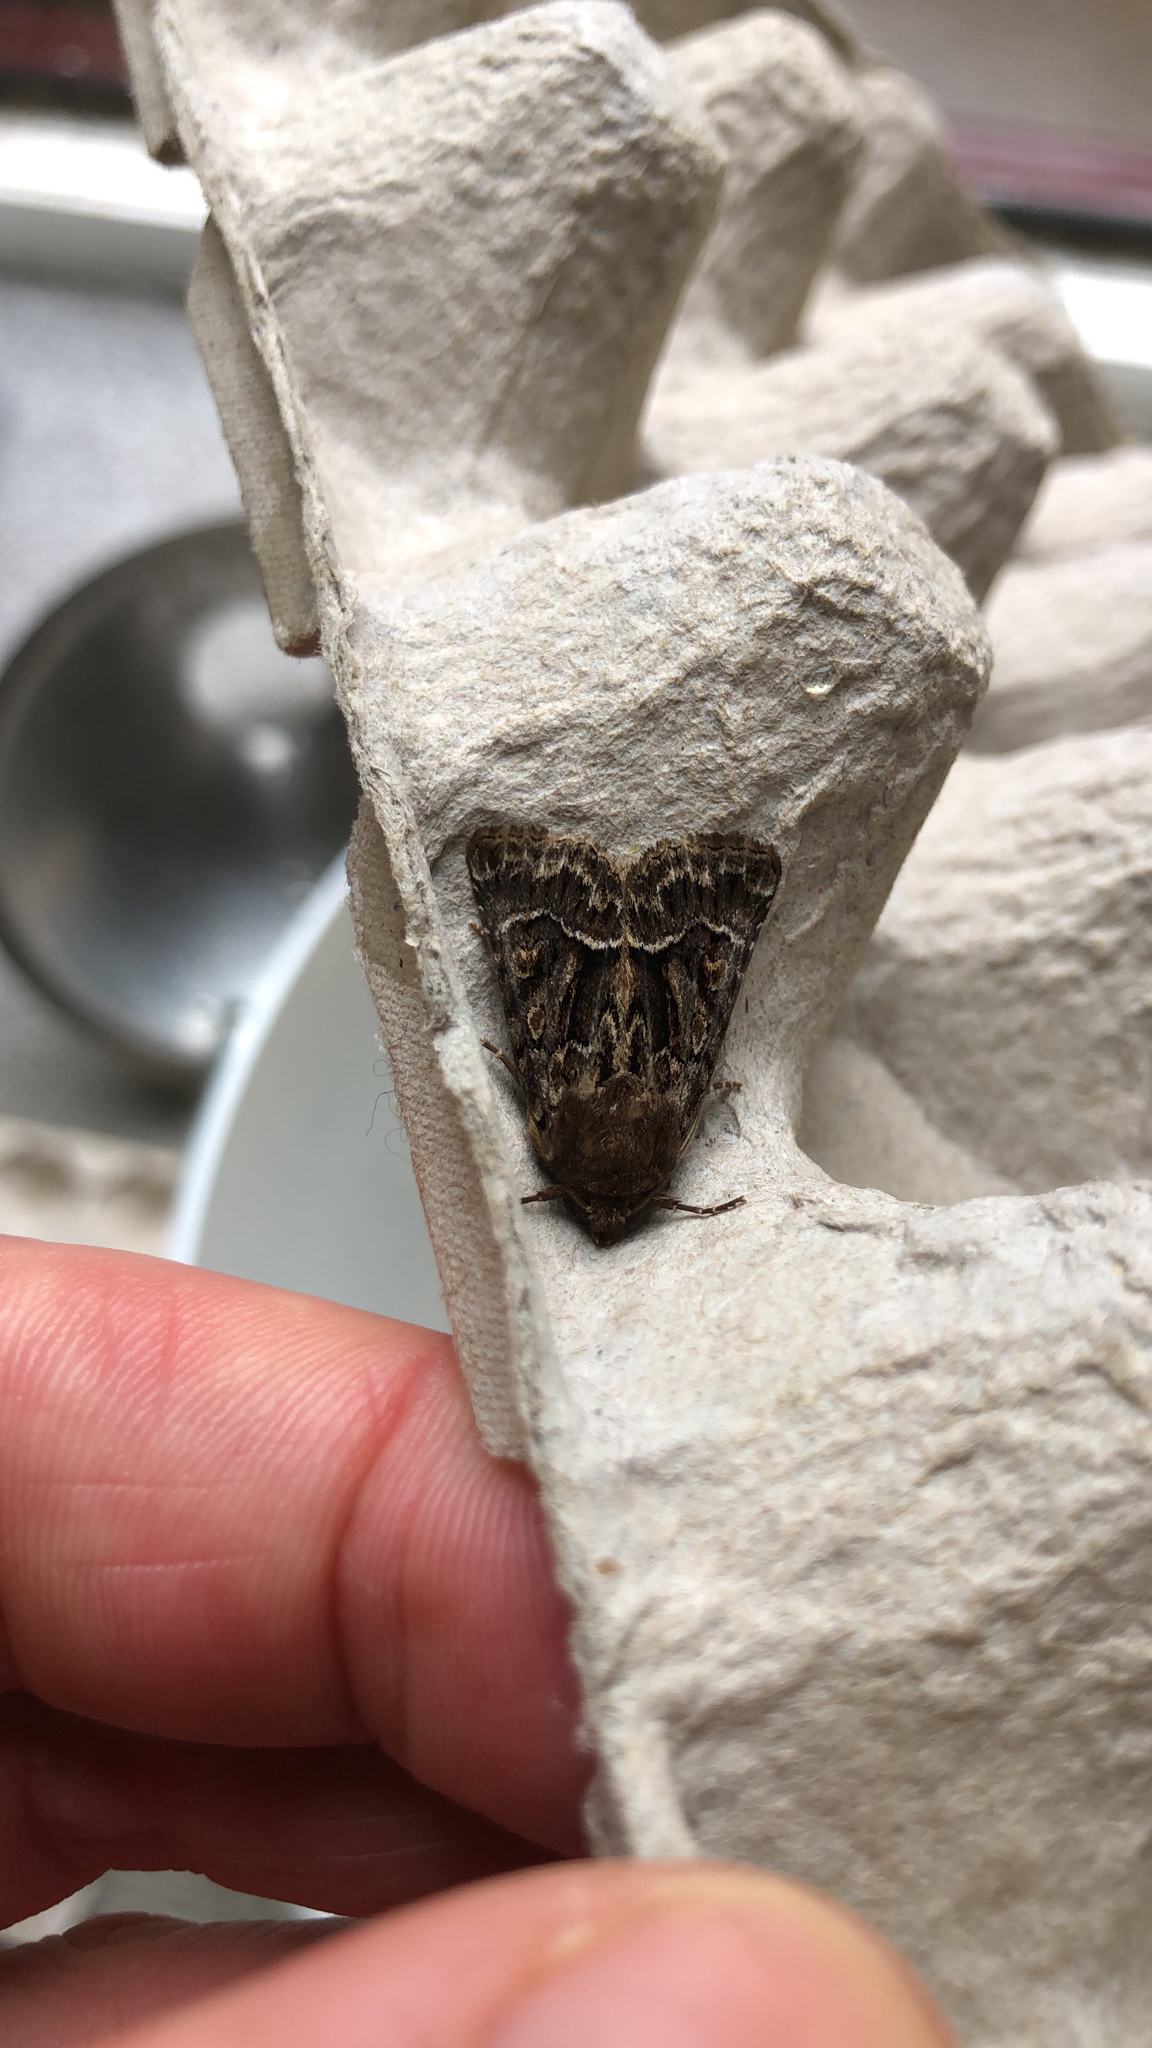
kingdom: Animalia
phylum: Arthropoda
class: Insecta
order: Lepidoptera
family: Noctuidae
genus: Thalpophila
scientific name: Thalpophila matura
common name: Straw underwing
